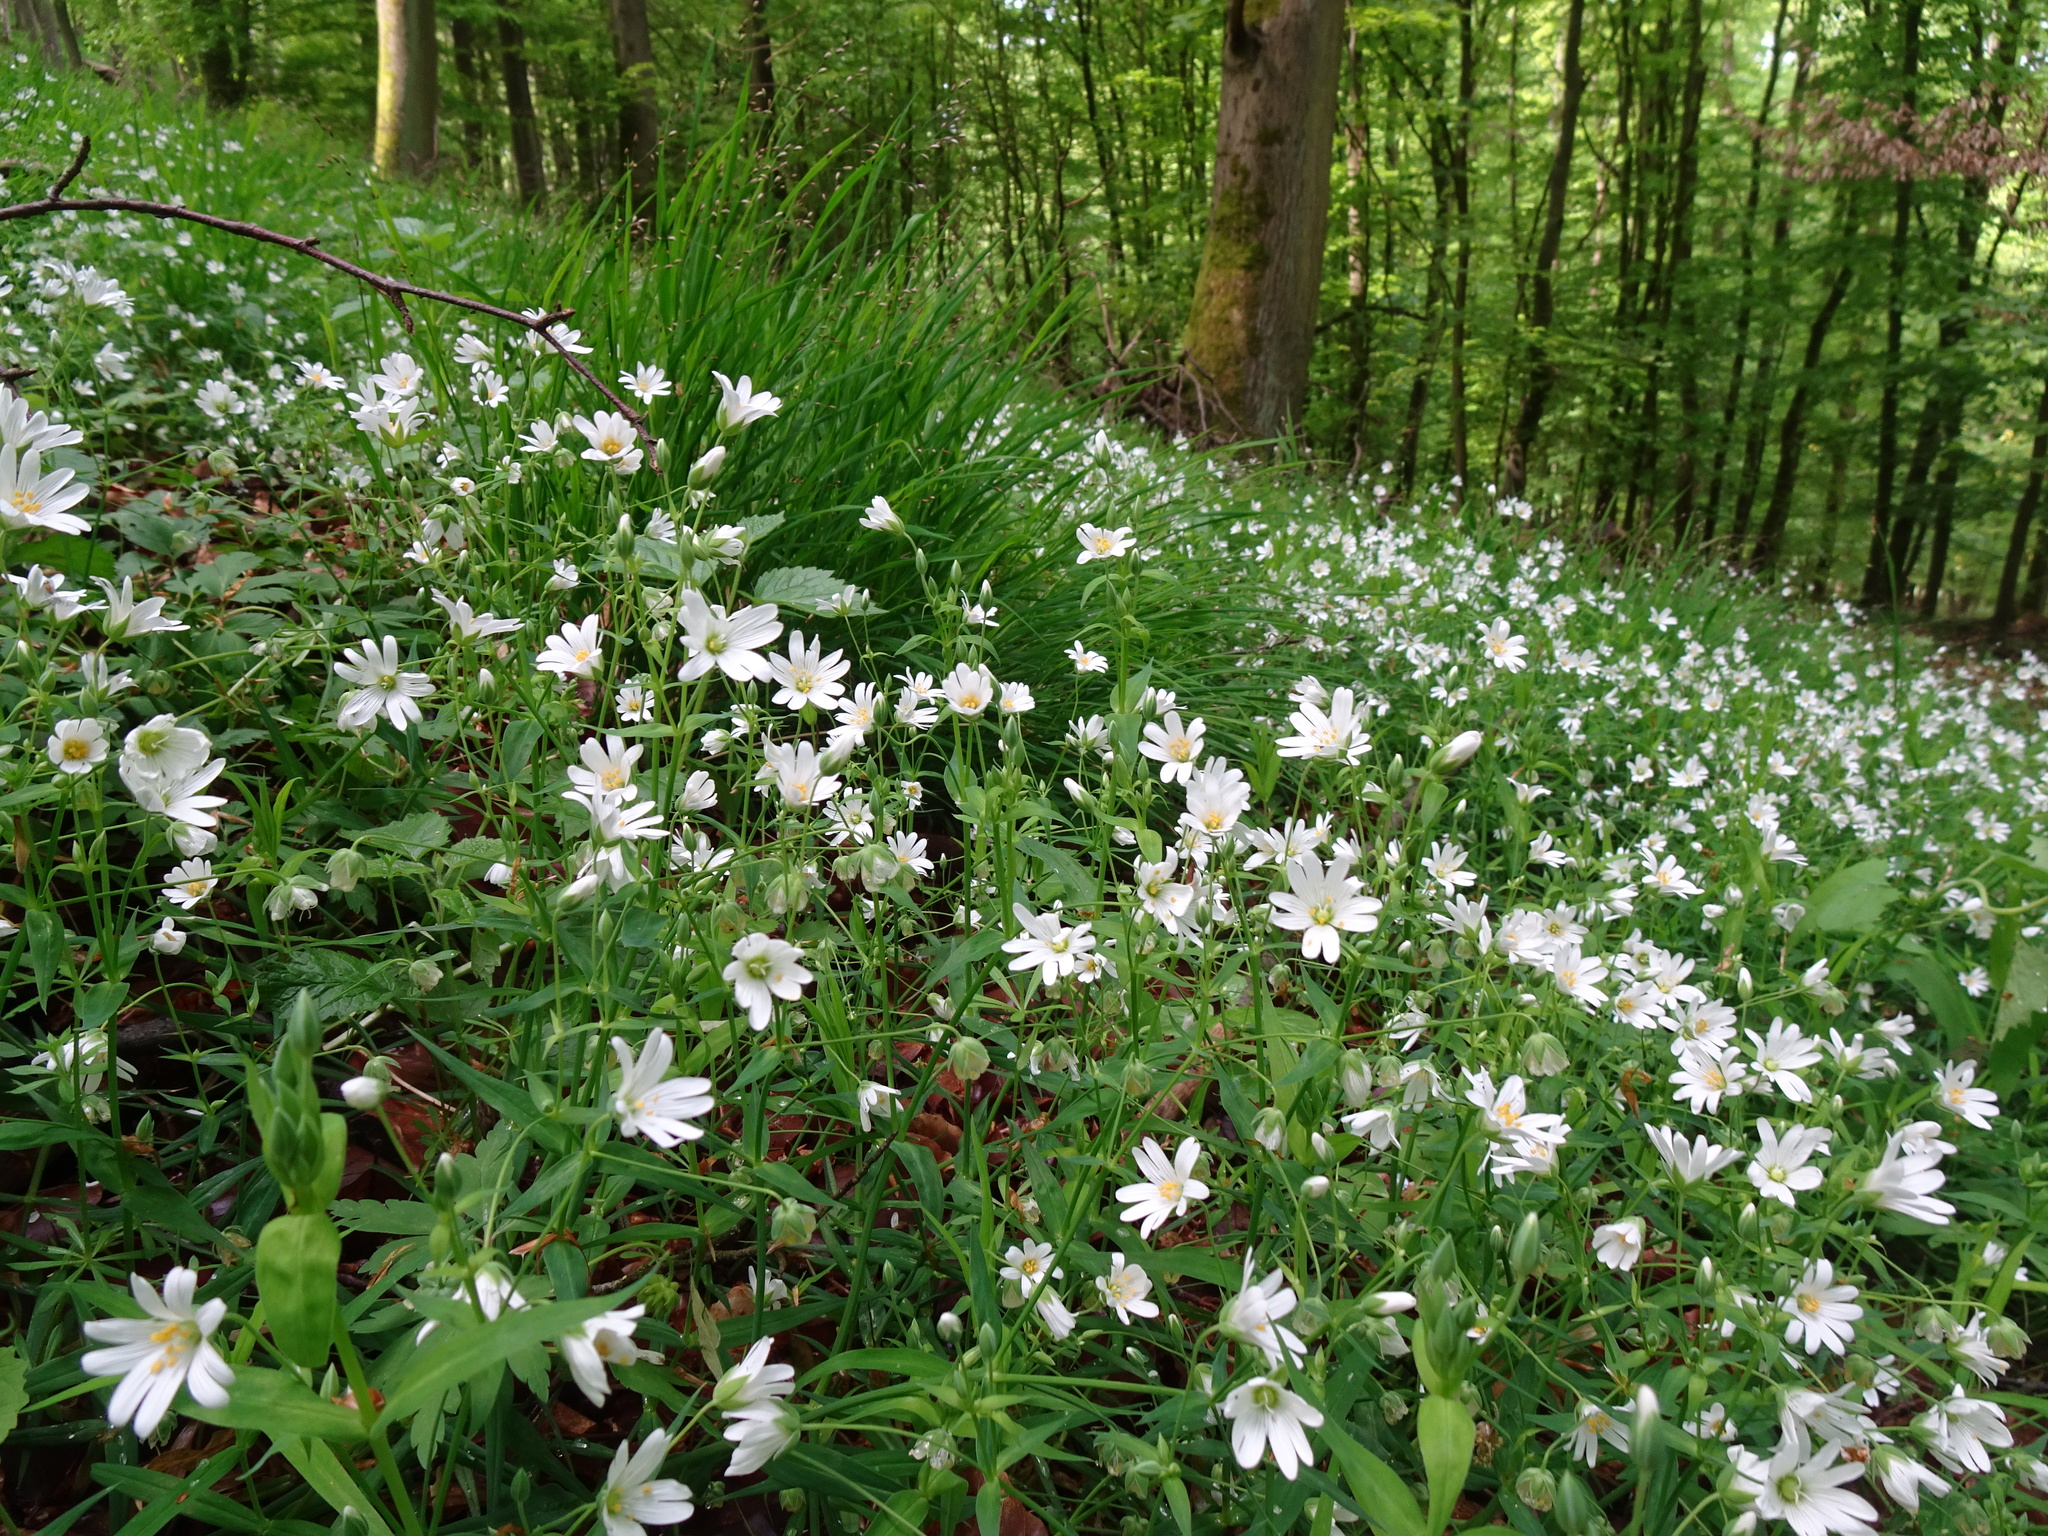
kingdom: Plantae
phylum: Tracheophyta
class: Magnoliopsida
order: Caryophyllales
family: Caryophyllaceae
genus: Rabelera
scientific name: Rabelera holostea
